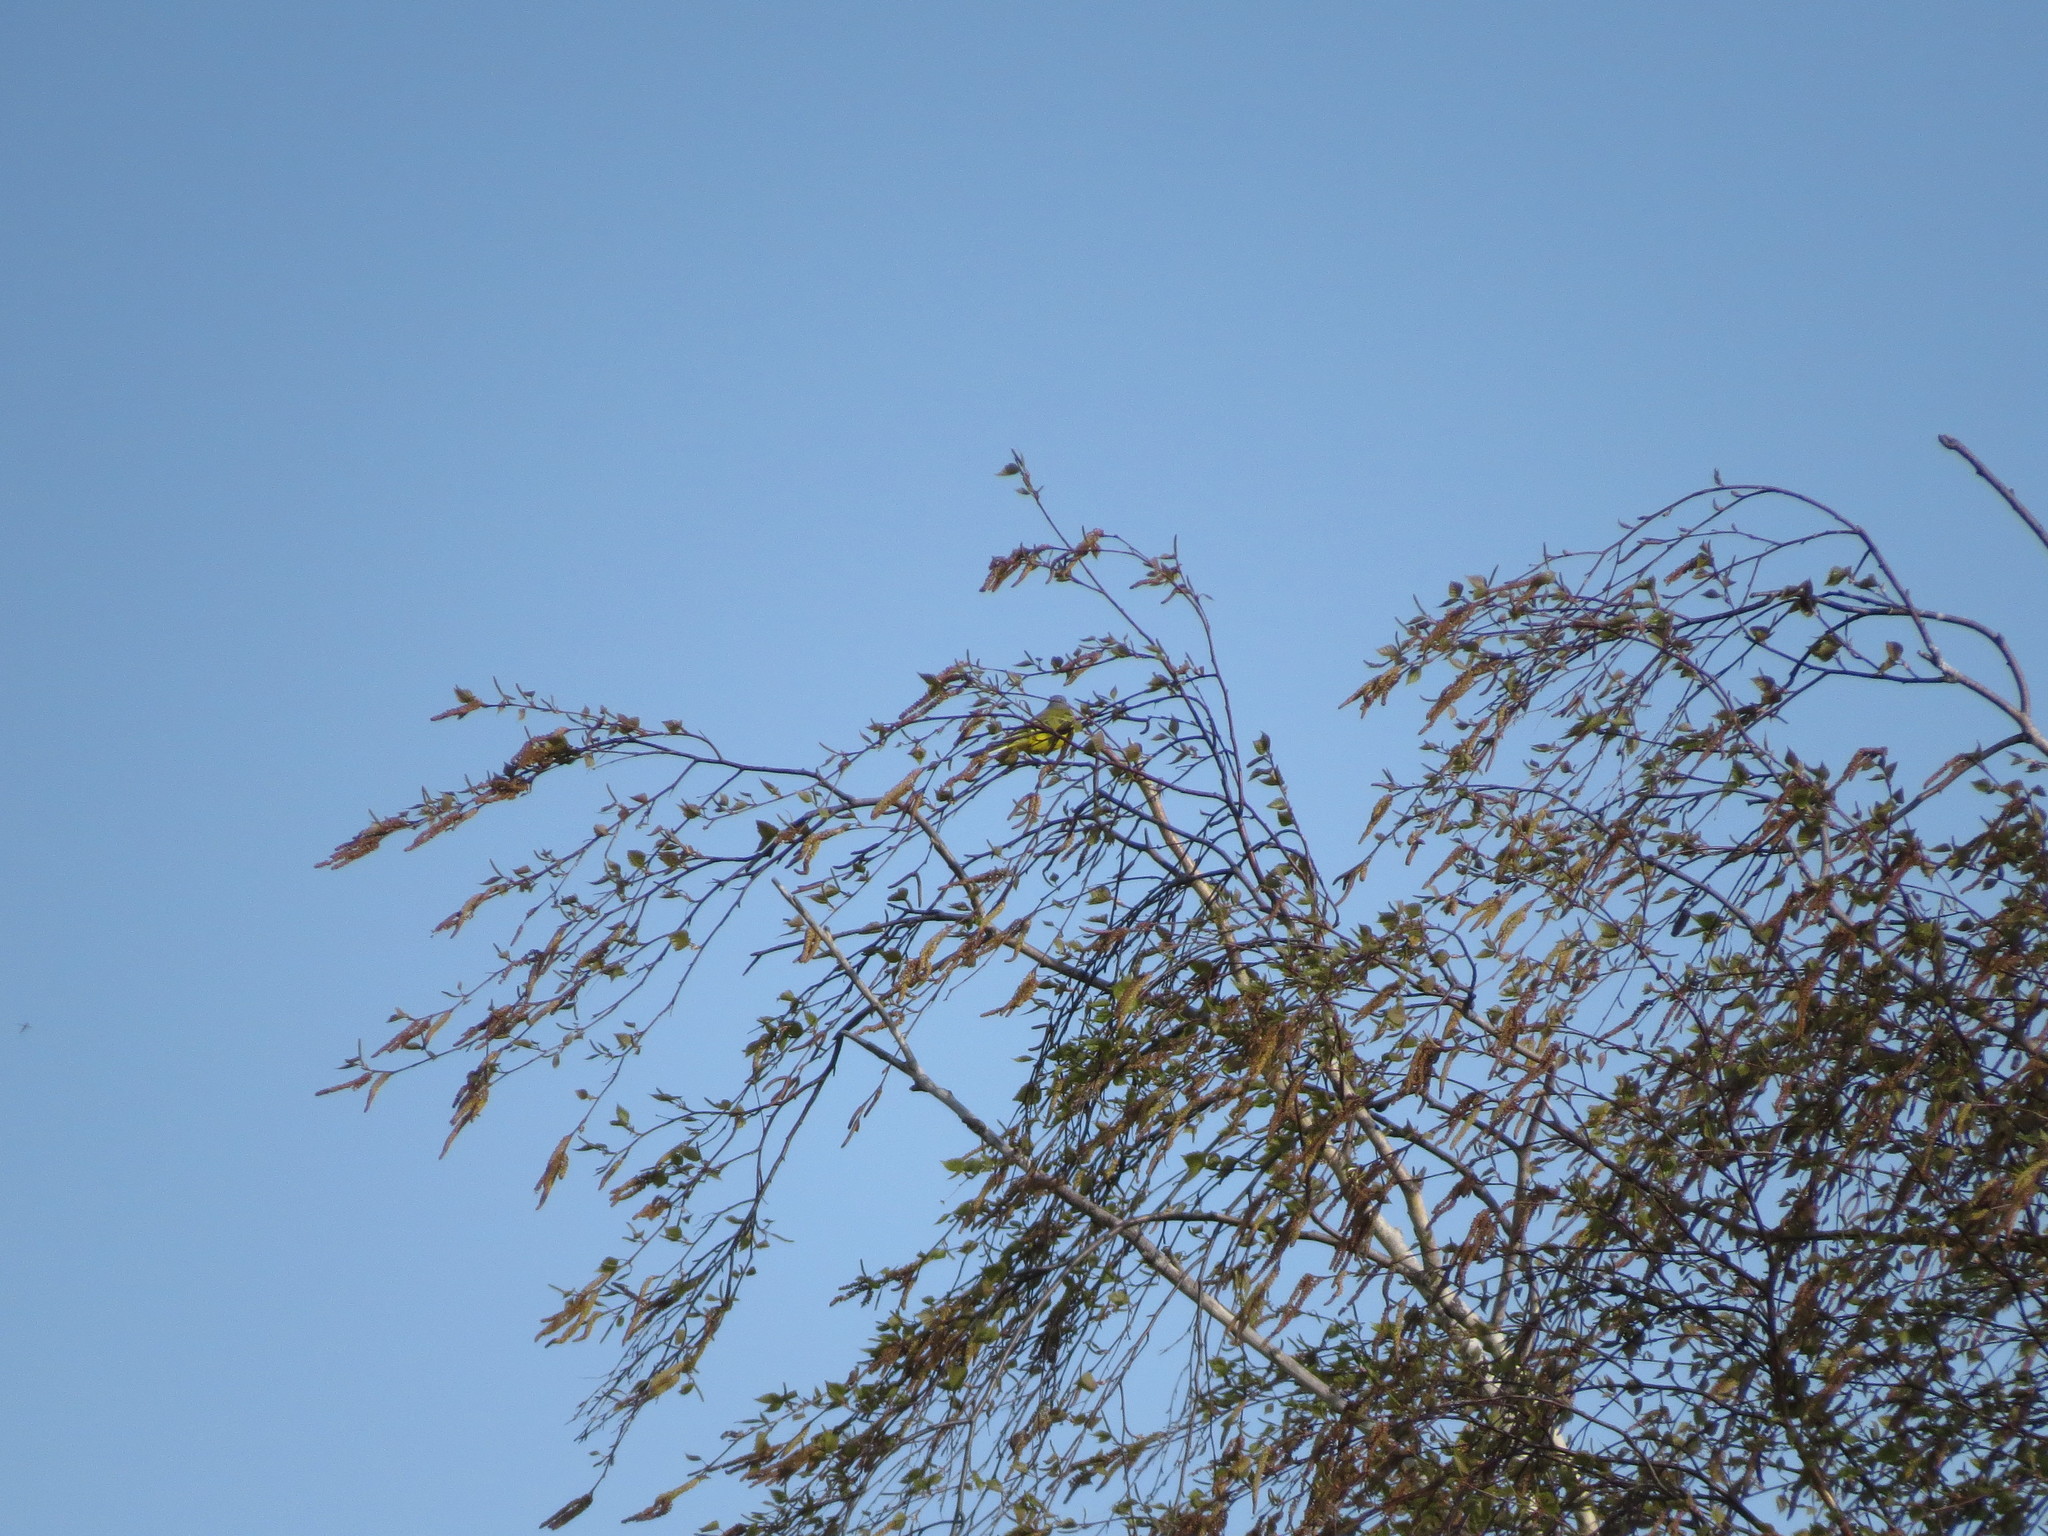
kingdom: Animalia
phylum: Chordata
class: Aves
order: Passeriformes
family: Motacillidae
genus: Motacilla
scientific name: Motacilla flava
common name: Western yellow wagtail
